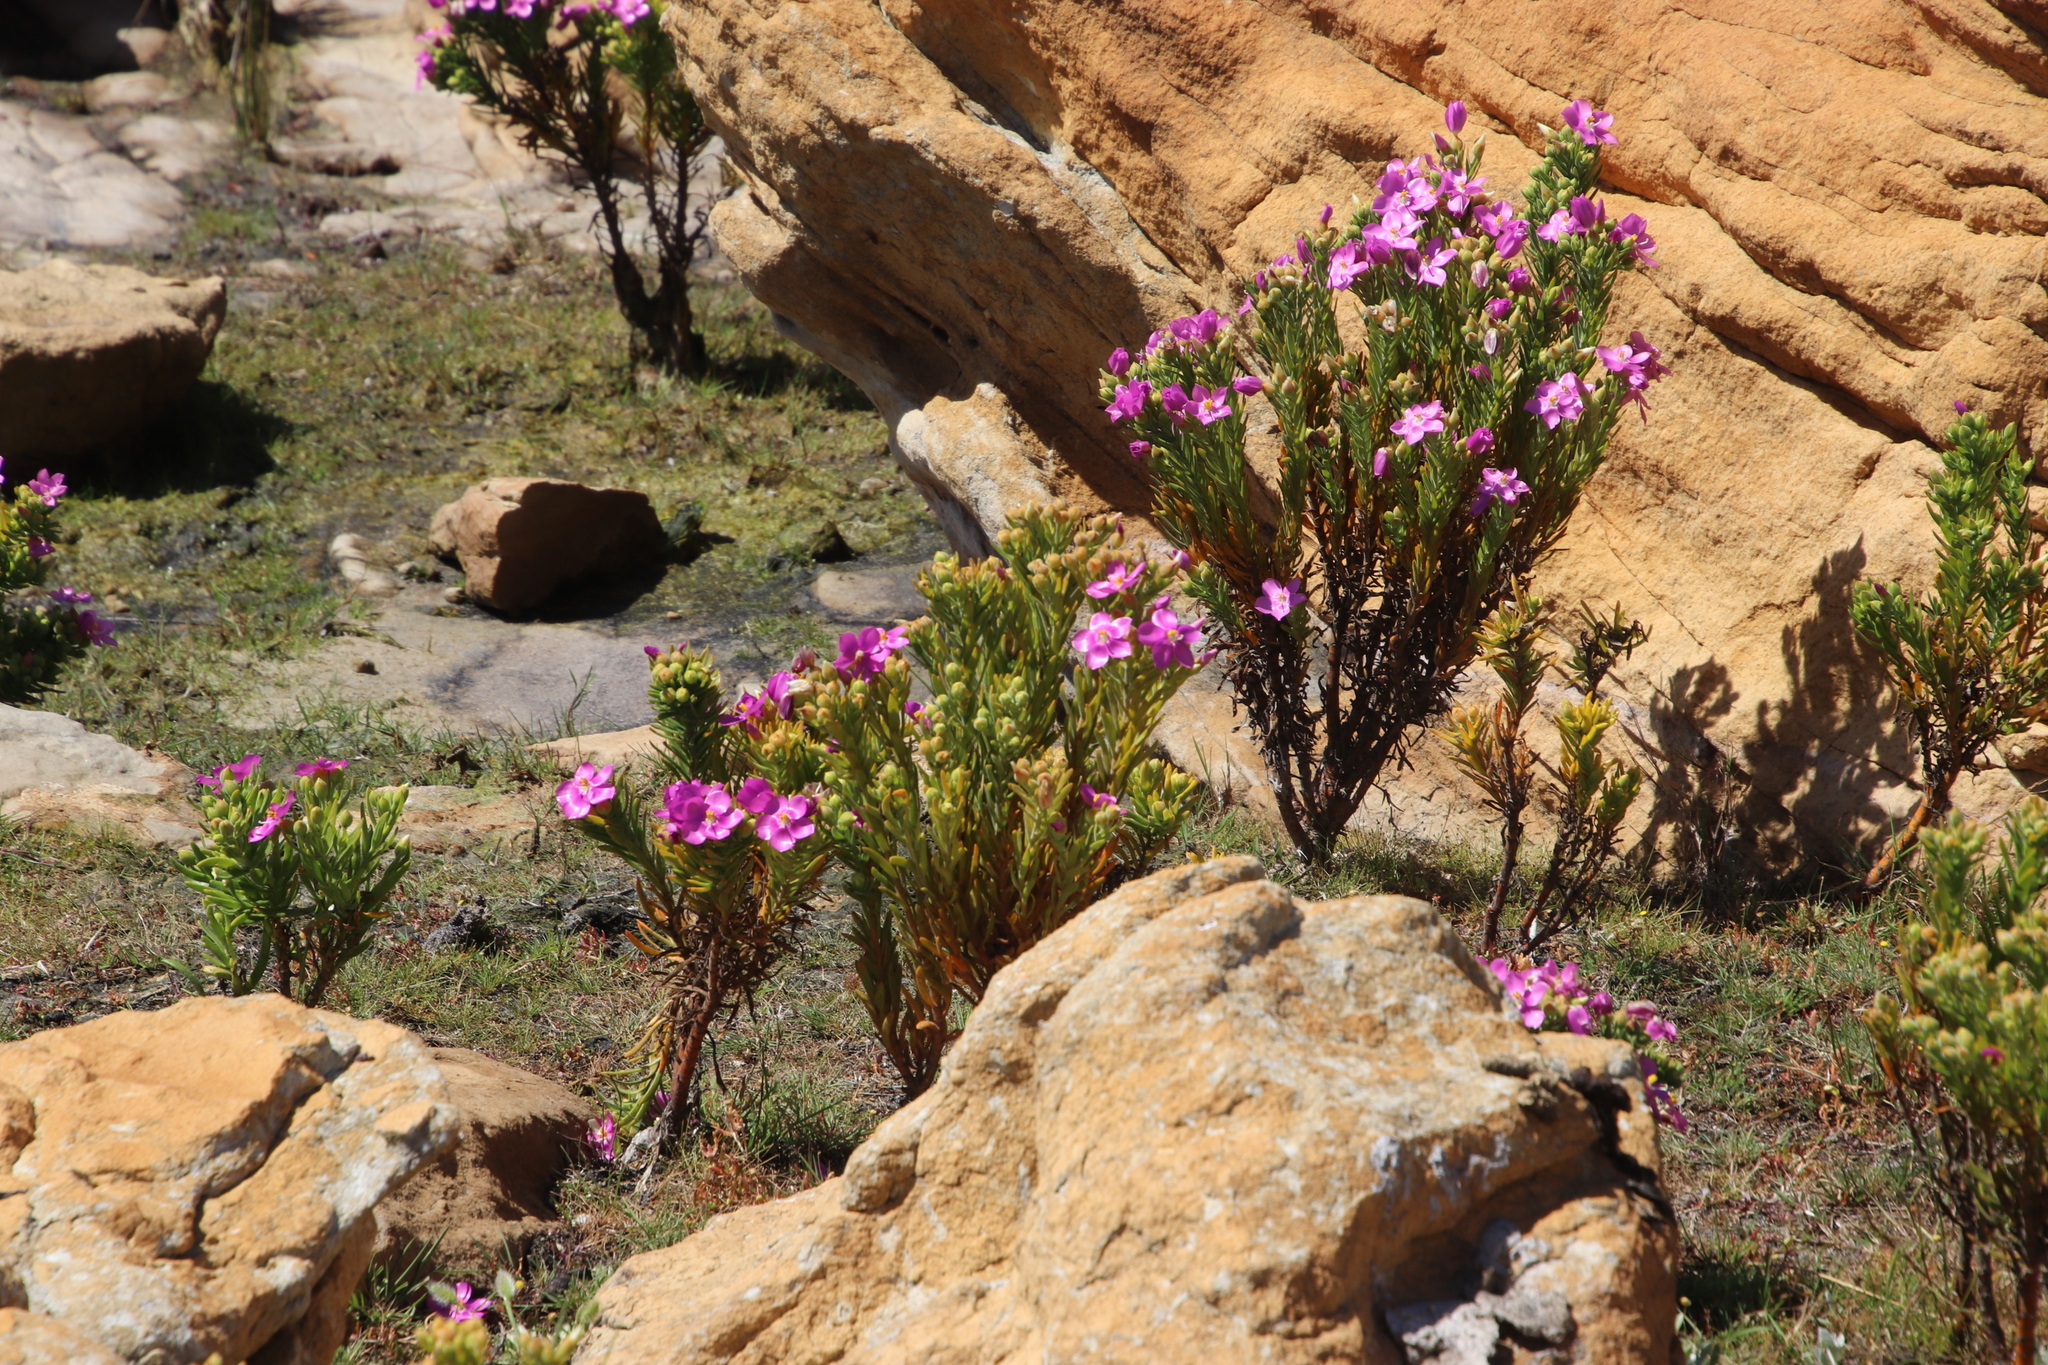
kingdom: Plantae
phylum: Tracheophyta
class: Magnoliopsida
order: Gentianales
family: Gentianaceae
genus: Orphium
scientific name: Orphium frutescens
